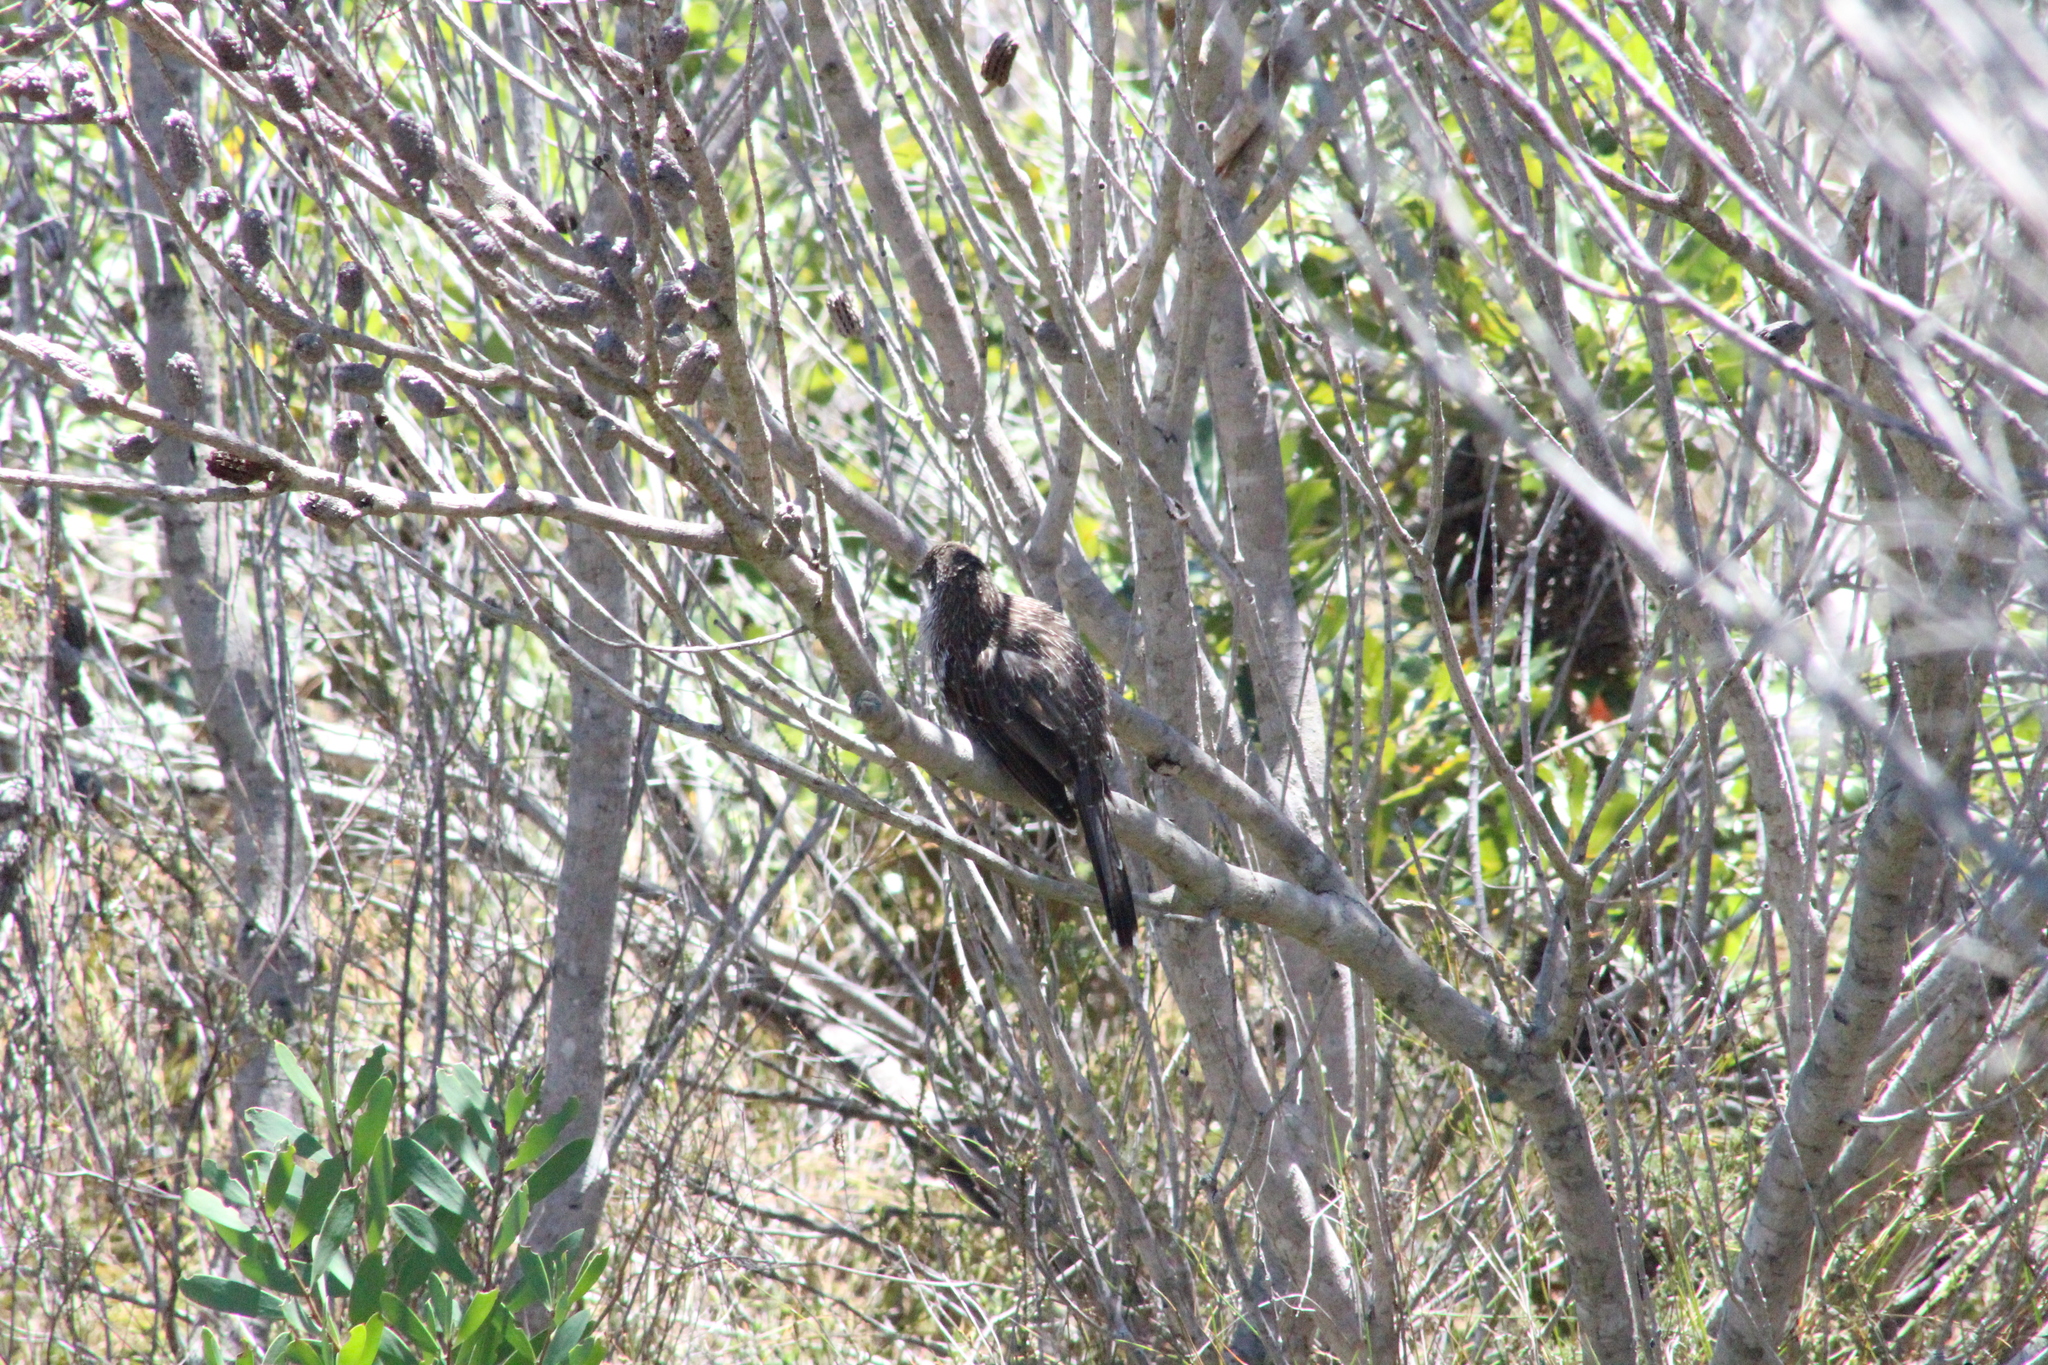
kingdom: Animalia
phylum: Chordata
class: Aves
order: Passeriformes
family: Meliphagidae
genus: Anthochaera
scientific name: Anthochaera chrysoptera
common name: Little wattlebird
